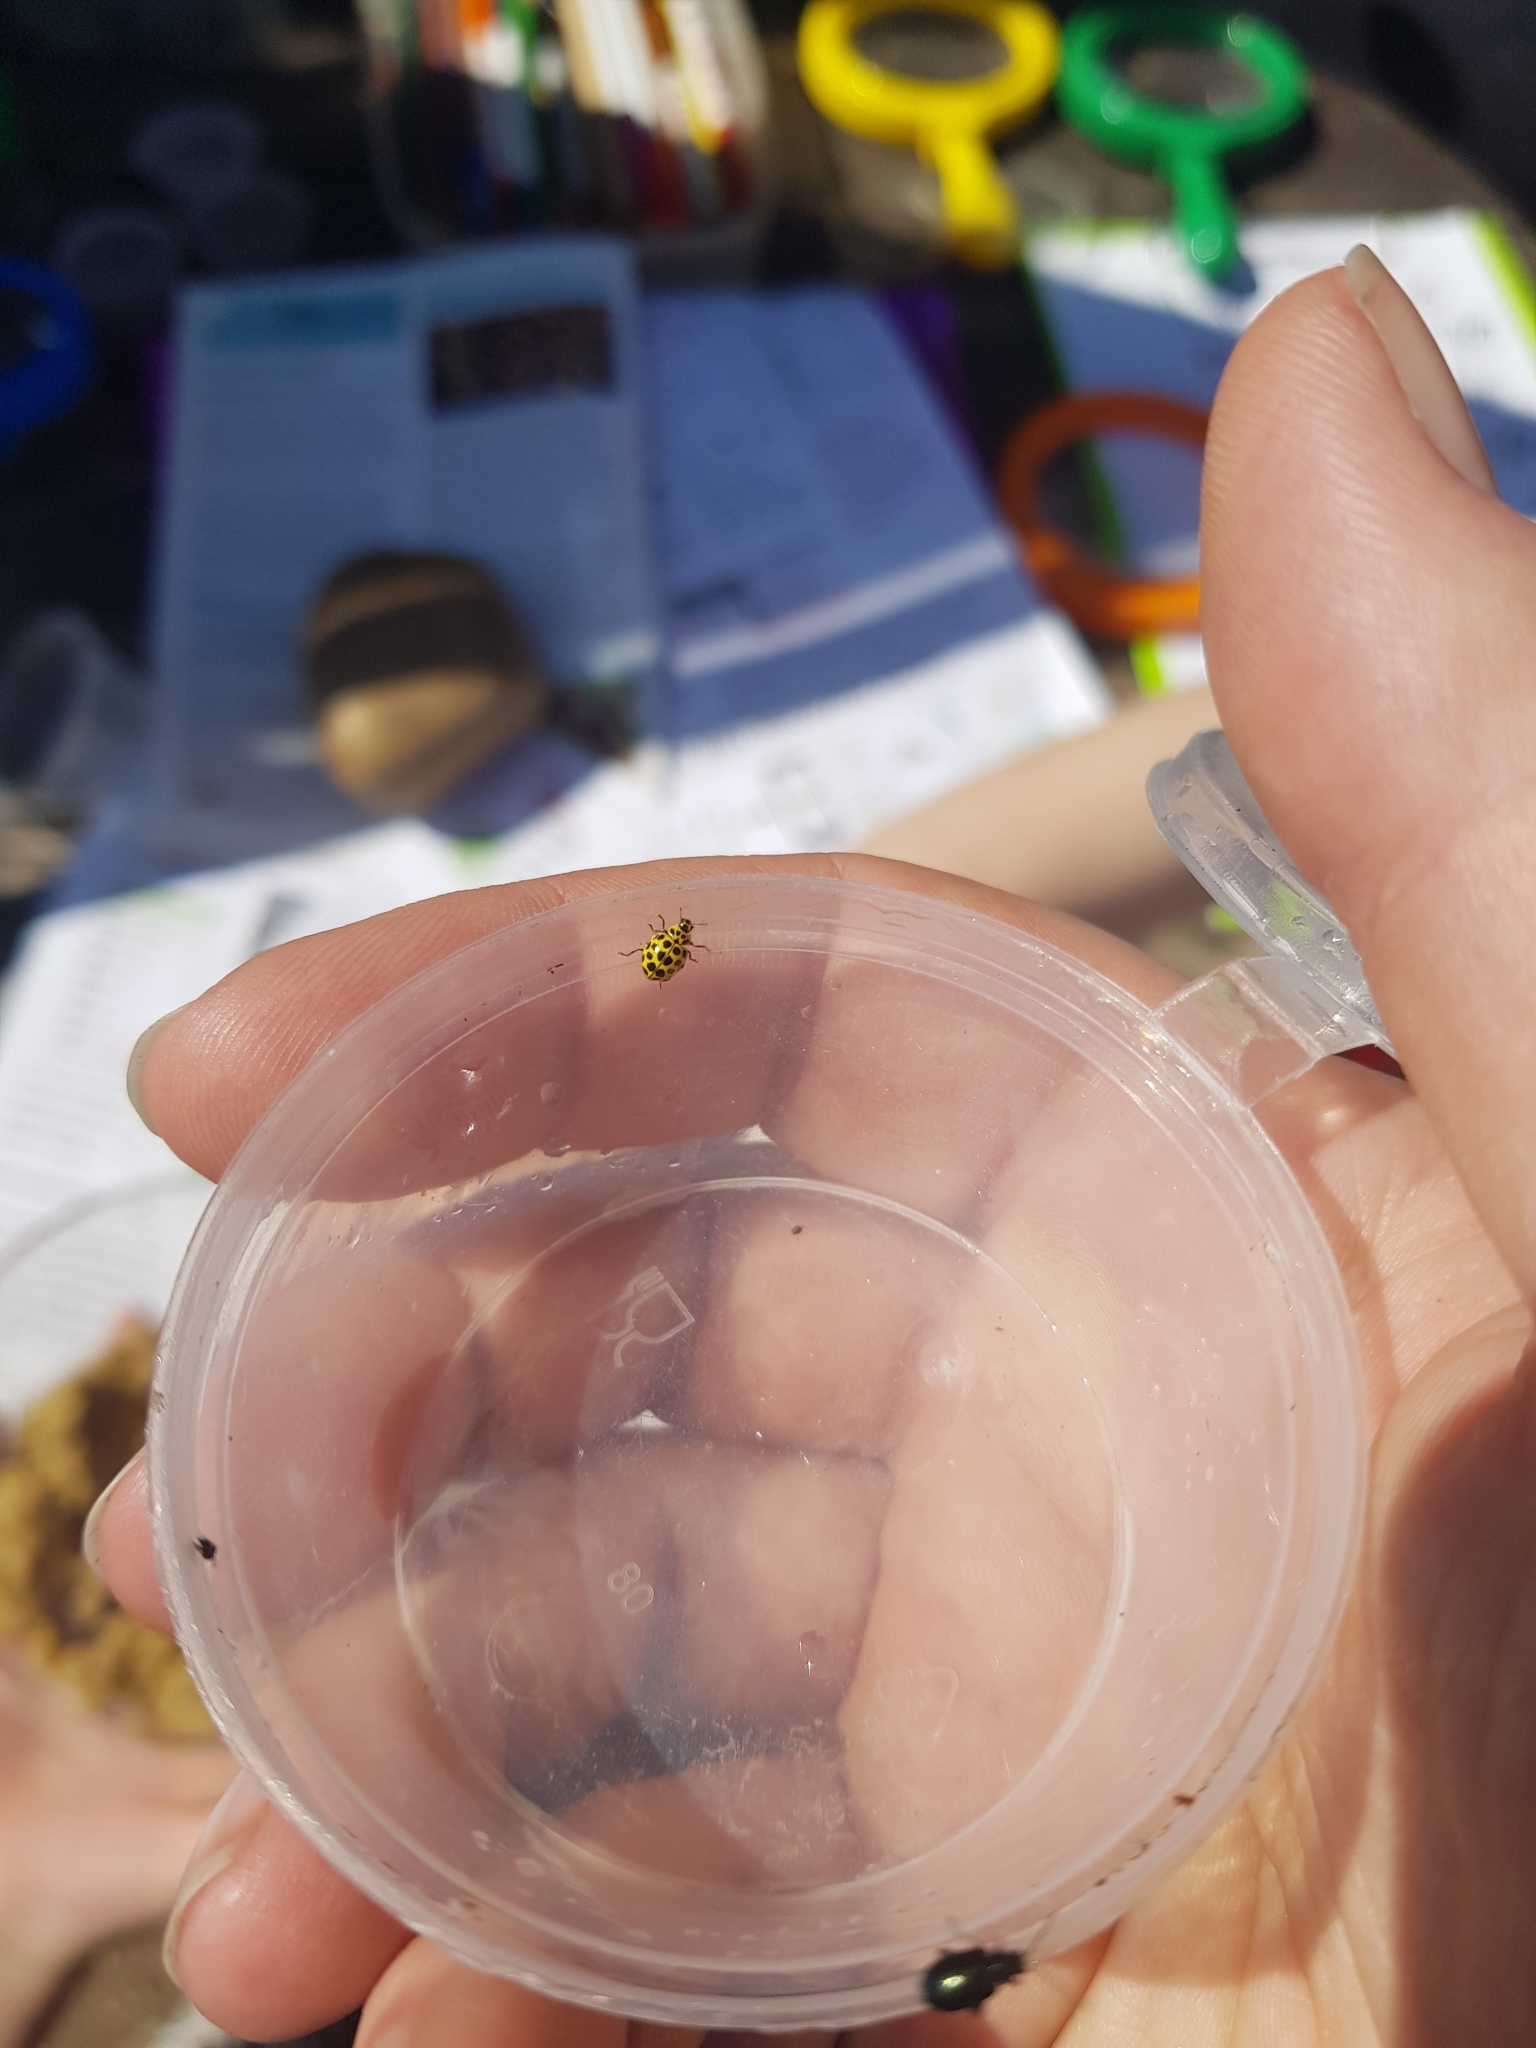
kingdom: Animalia
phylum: Arthropoda
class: Insecta
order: Coleoptera
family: Coccinellidae
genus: Psyllobora
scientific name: Psyllobora vigintiduopunctata
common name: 22-spot ladybird
